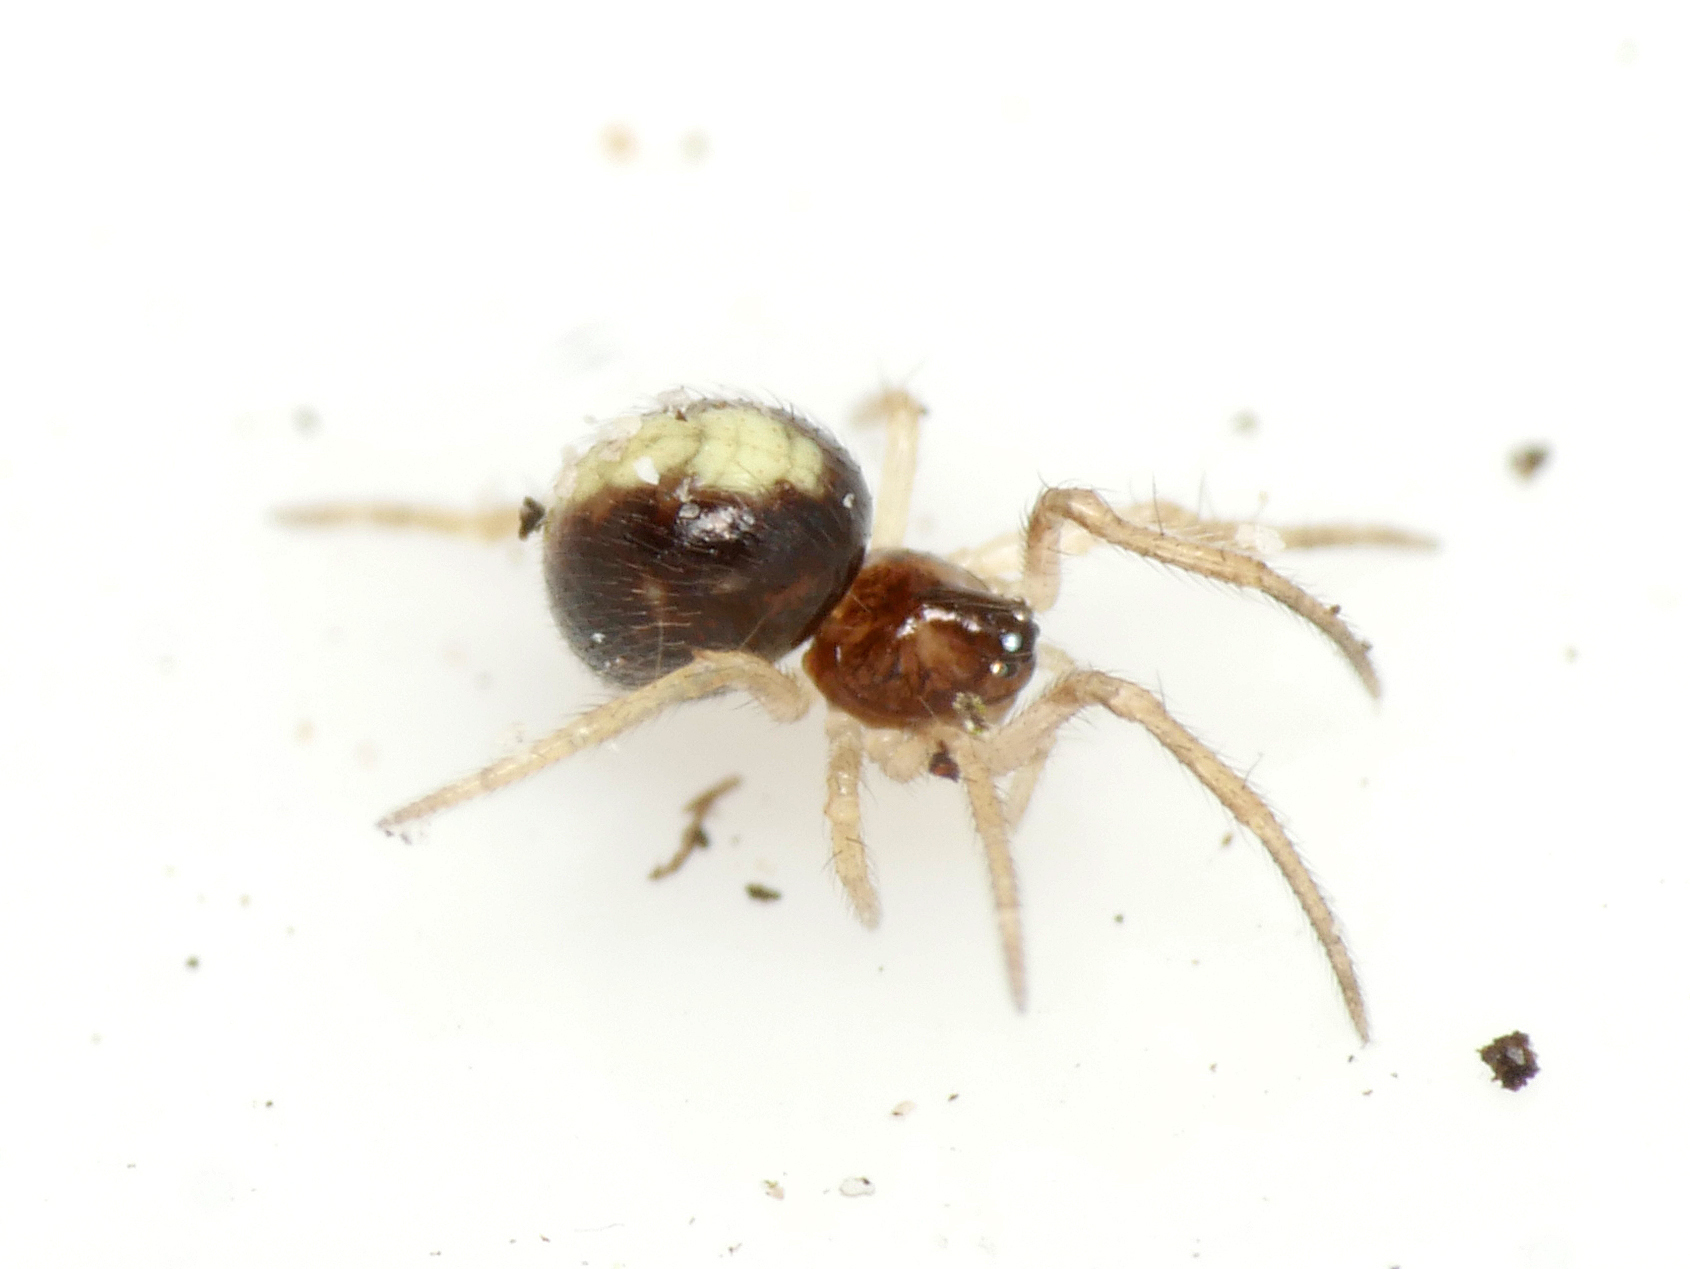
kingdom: Animalia
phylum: Arthropoda
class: Arachnida
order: Araneae
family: Theridiidae
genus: Neottiura
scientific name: Neottiura bimaculata
